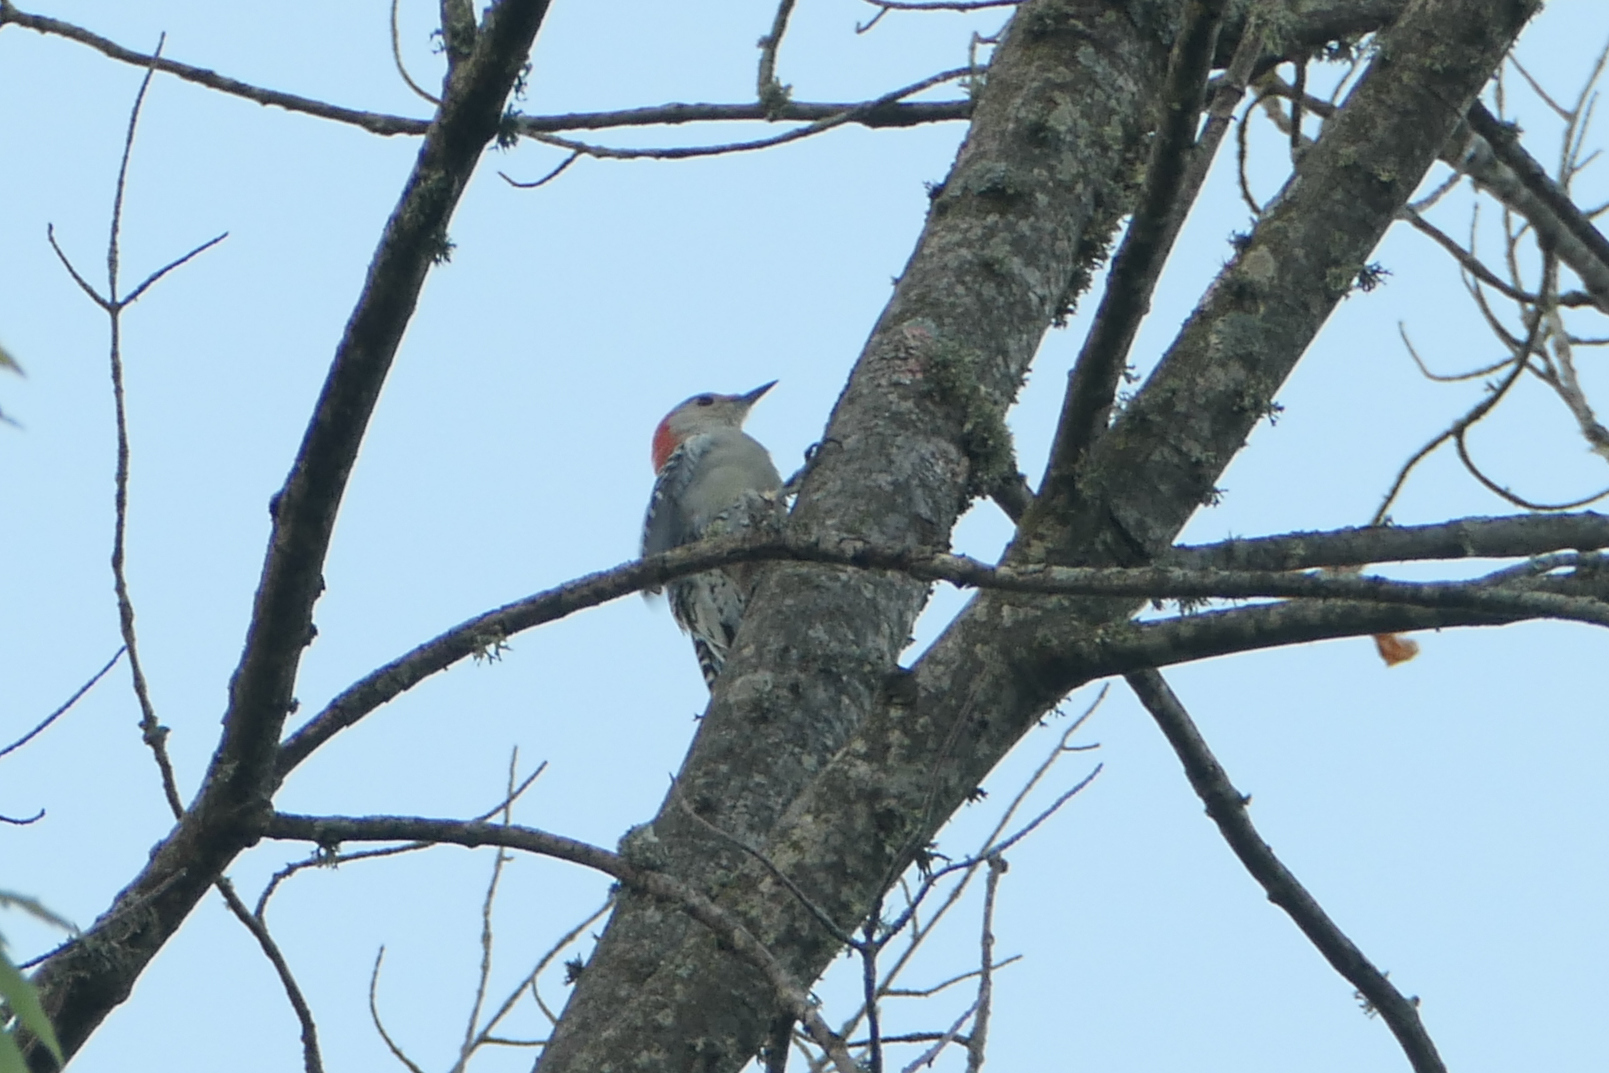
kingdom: Animalia
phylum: Chordata
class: Aves
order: Piciformes
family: Picidae
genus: Melanerpes
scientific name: Melanerpes carolinus
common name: Red-bellied woodpecker
